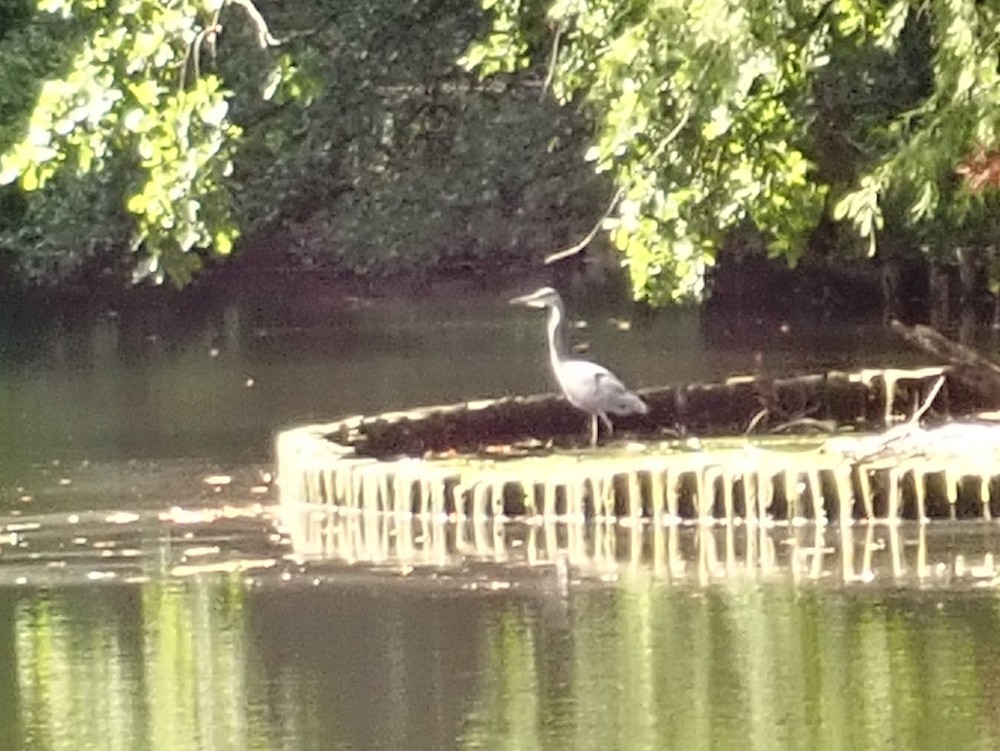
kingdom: Animalia
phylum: Chordata
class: Aves
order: Pelecaniformes
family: Ardeidae
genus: Ardea
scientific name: Ardea cinerea
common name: Grey heron
